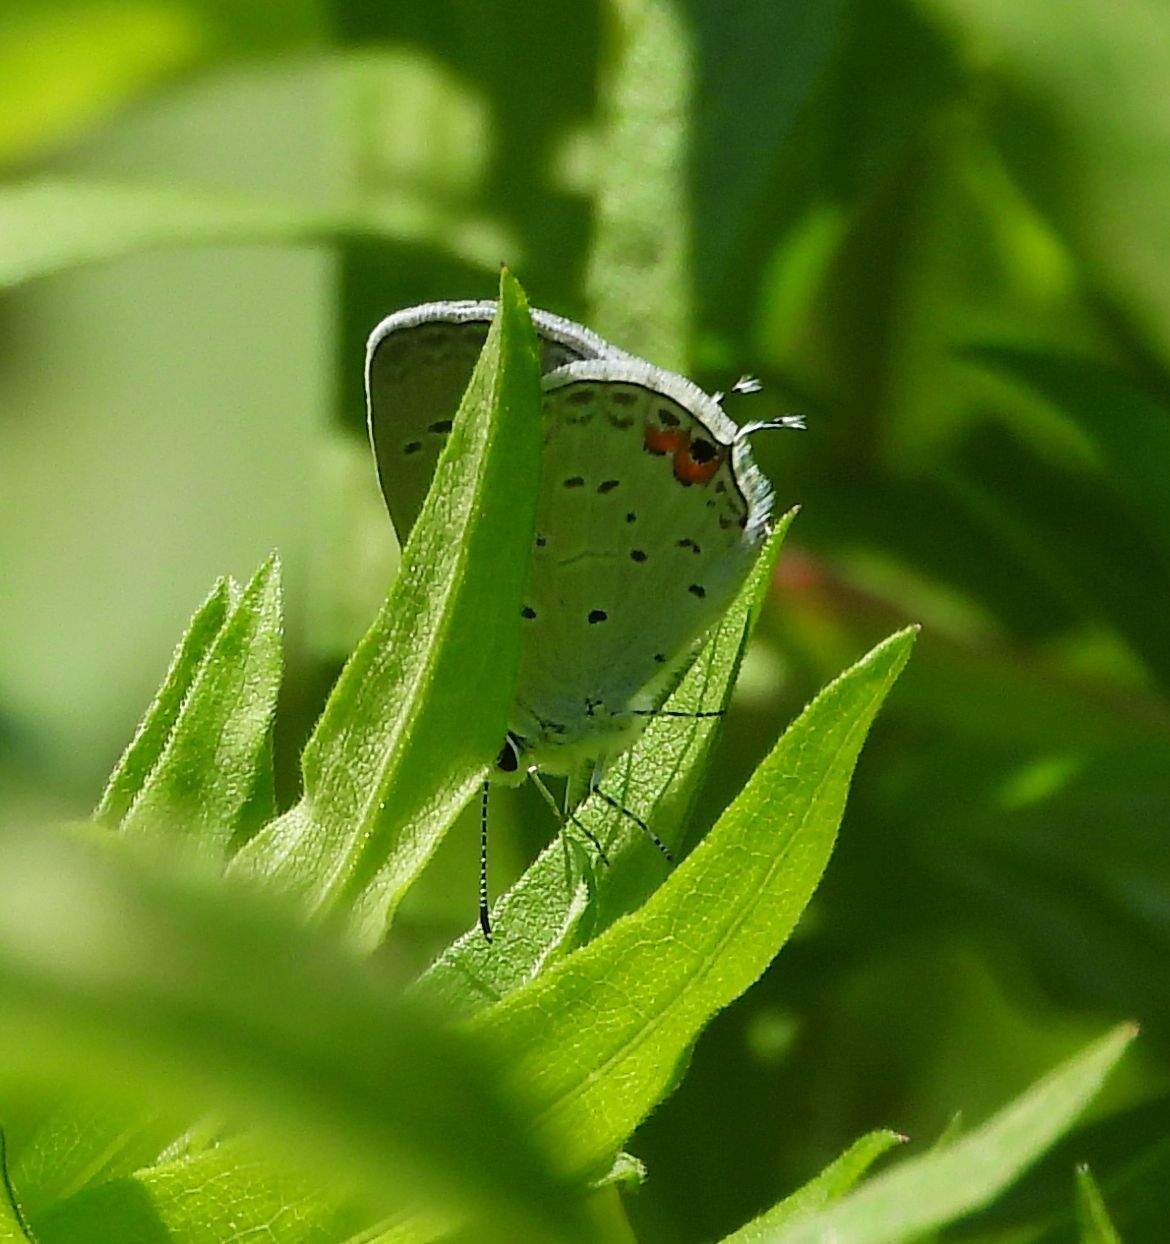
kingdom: Animalia
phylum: Arthropoda
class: Insecta
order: Lepidoptera
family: Lycaenidae
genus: Elkalyce
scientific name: Elkalyce comyntas
